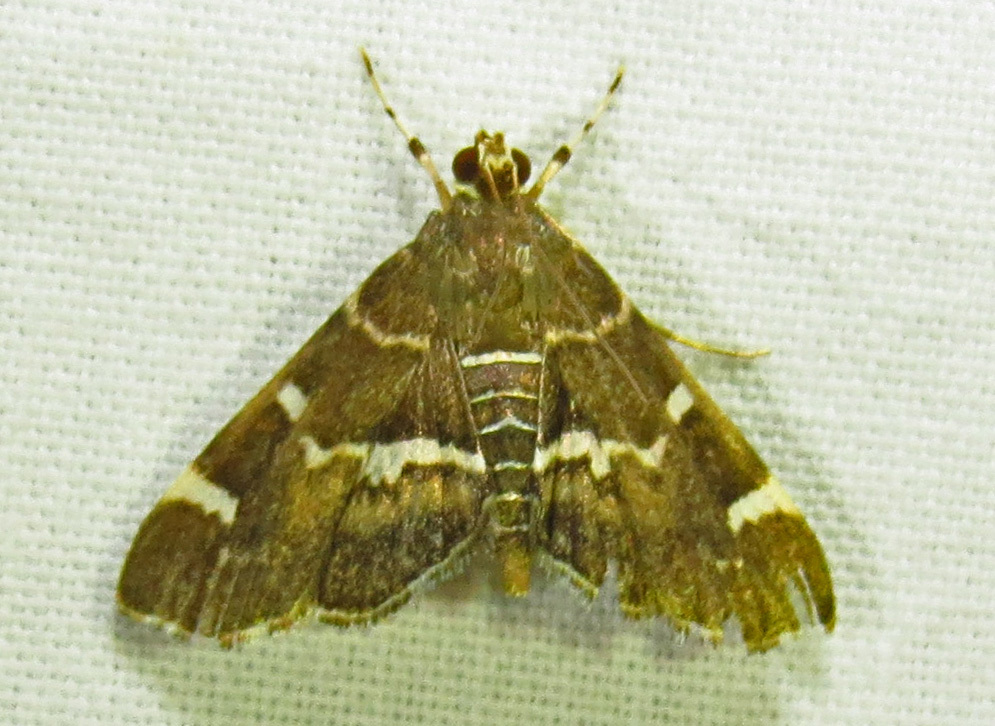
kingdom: Animalia
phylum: Arthropoda
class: Insecta
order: Lepidoptera
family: Crambidae
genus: Hymenia
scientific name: Hymenia perspectalis
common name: Spotted beet webworm
